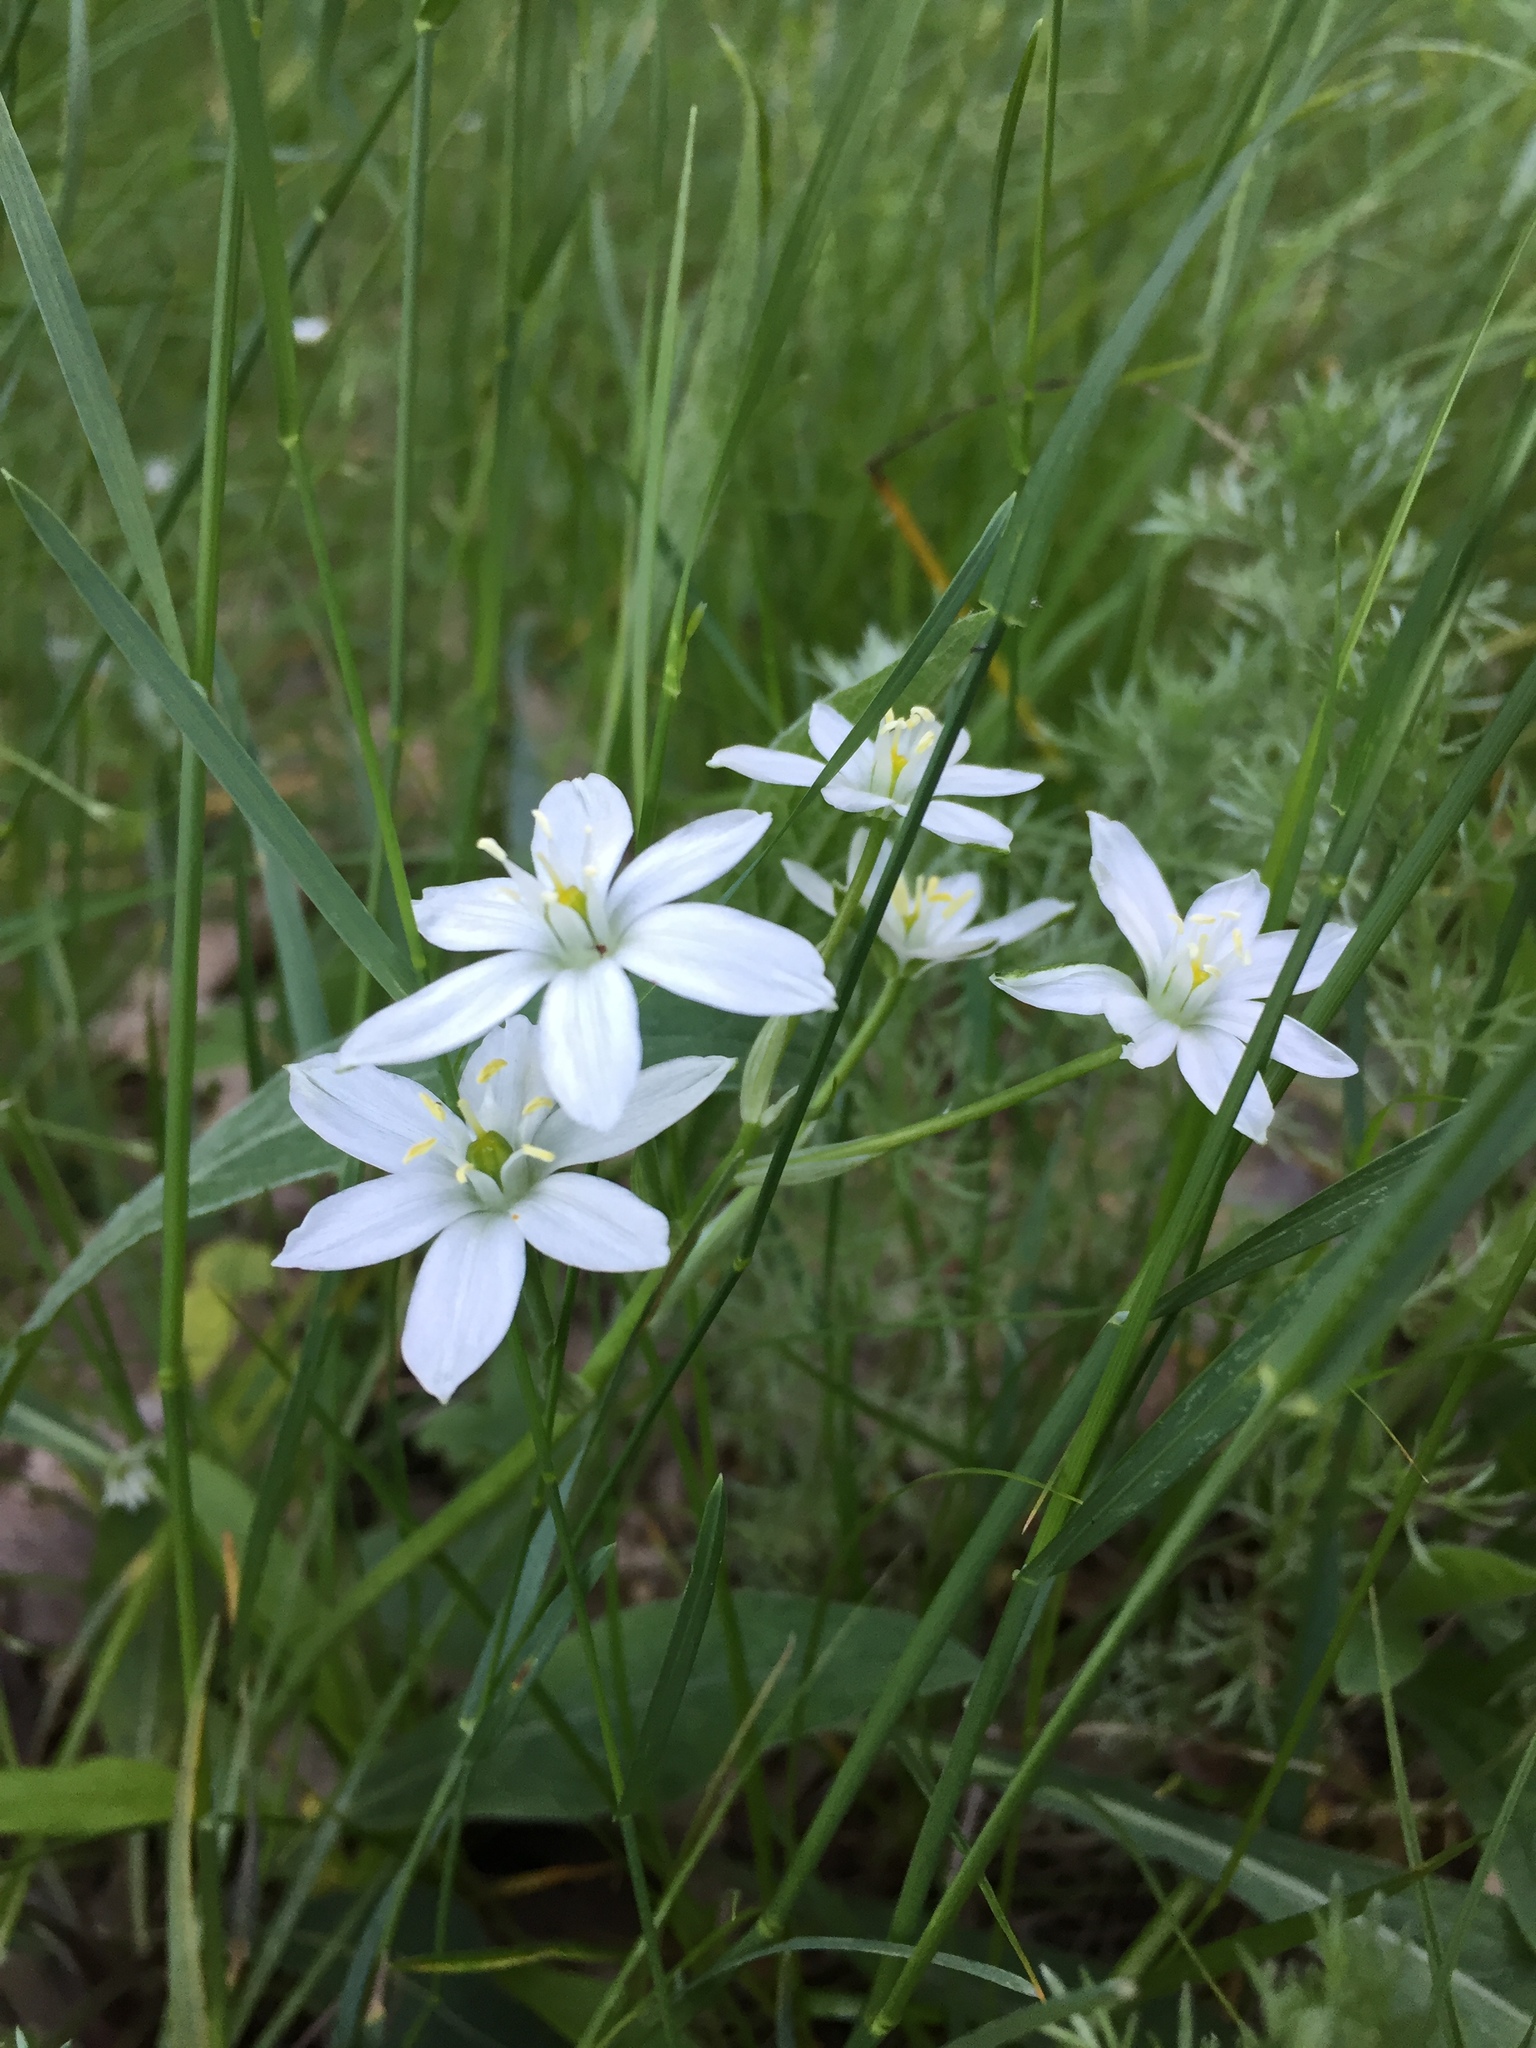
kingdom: Plantae
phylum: Tracheophyta
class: Liliopsida
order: Asparagales
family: Asparagaceae
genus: Ornithogalum
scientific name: Ornithogalum orthophyllum
